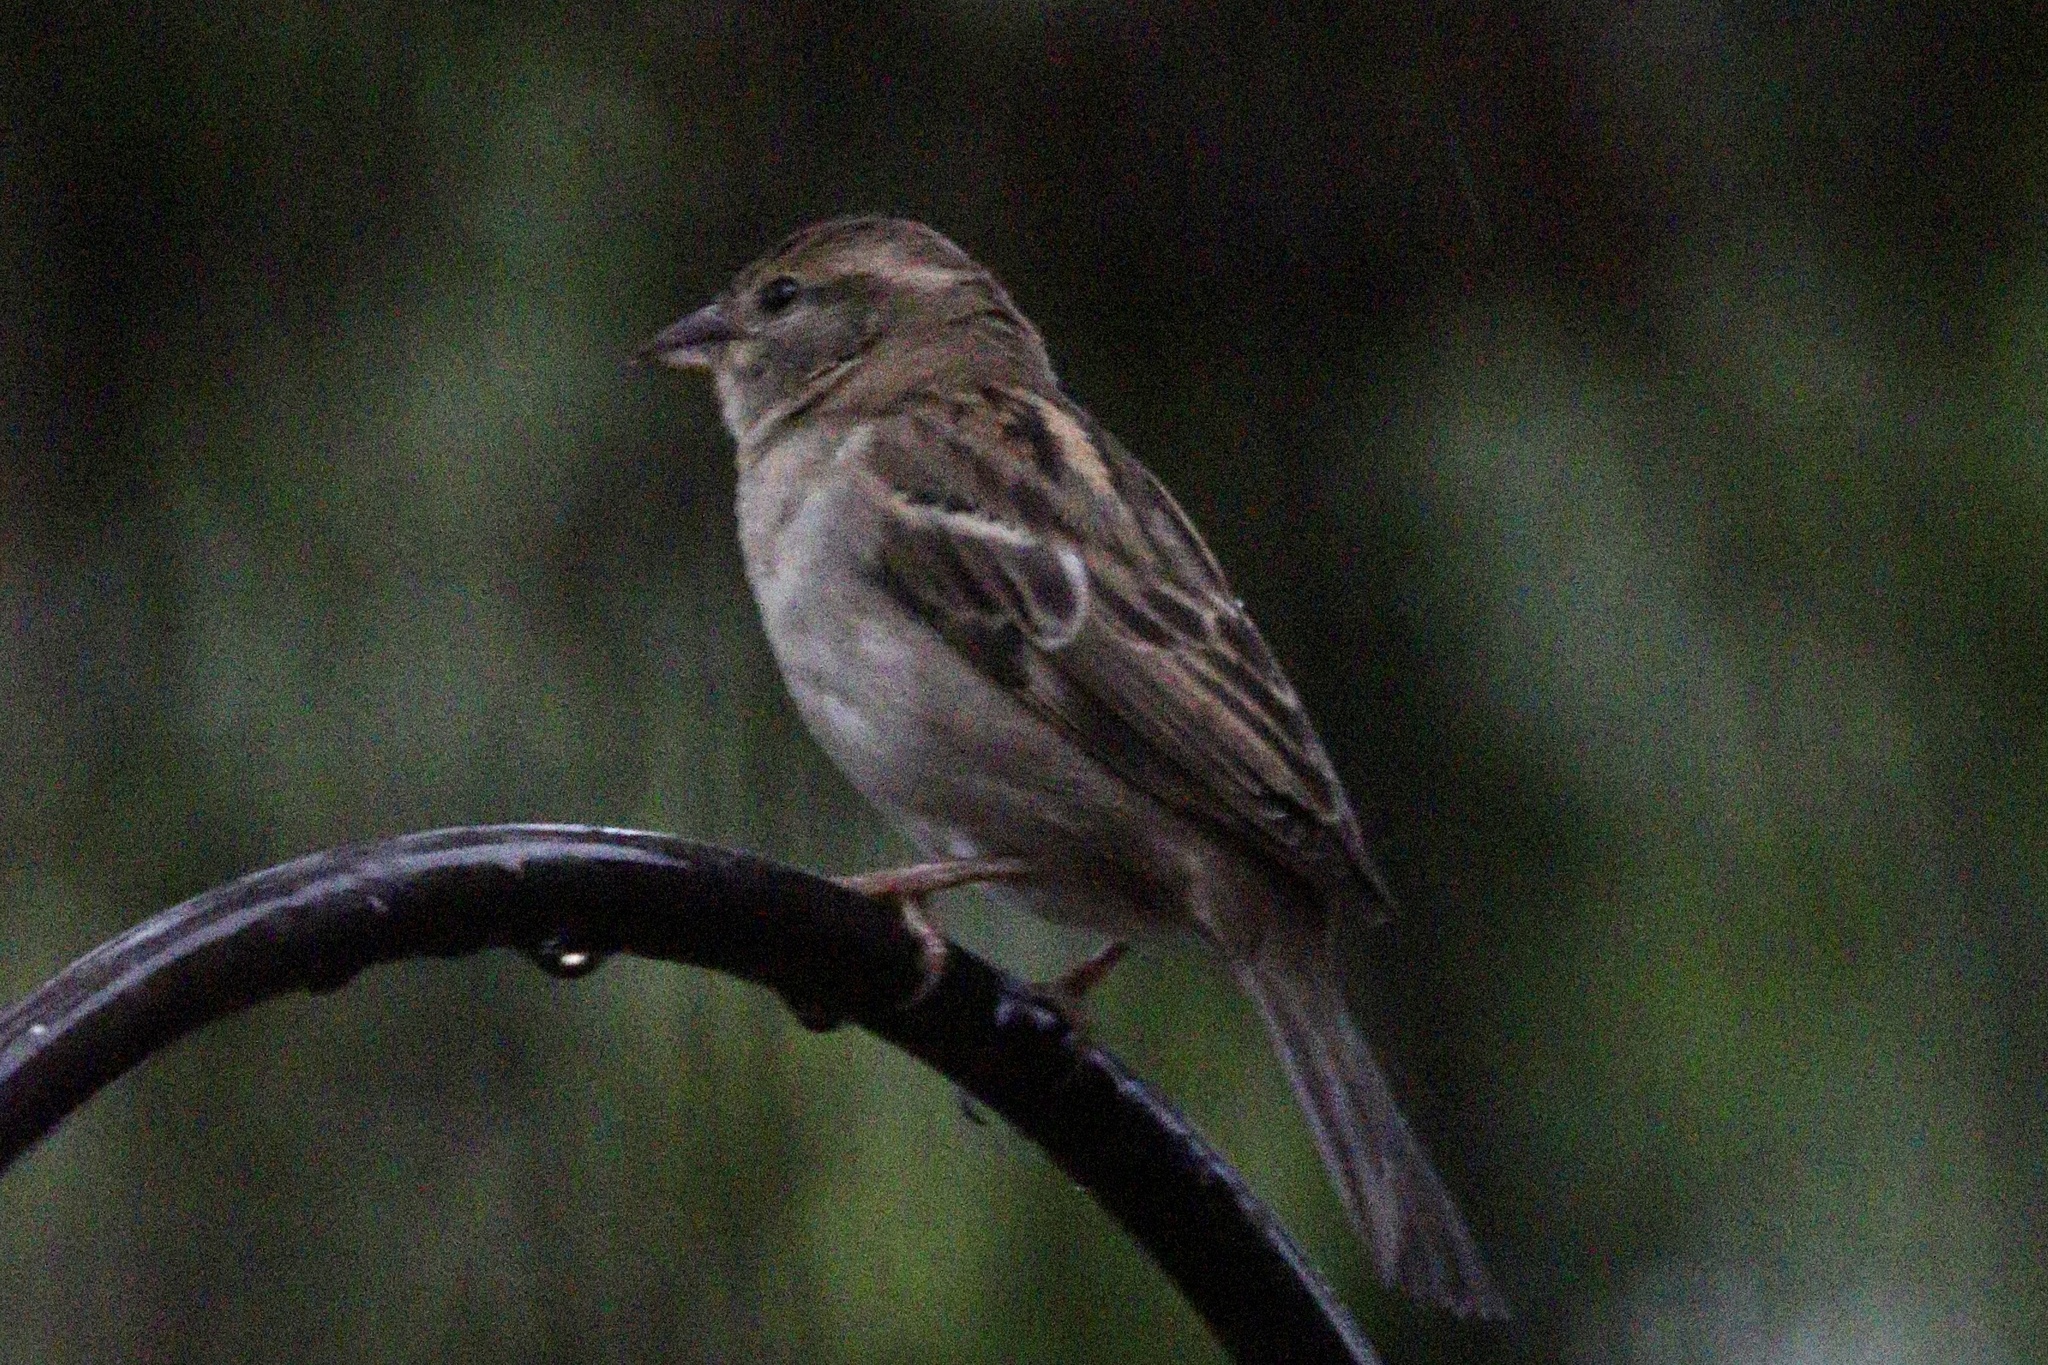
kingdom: Animalia
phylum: Chordata
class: Aves
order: Passeriformes
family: Passeridae
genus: Passer
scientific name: Passer domesticus
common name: House sparrow
